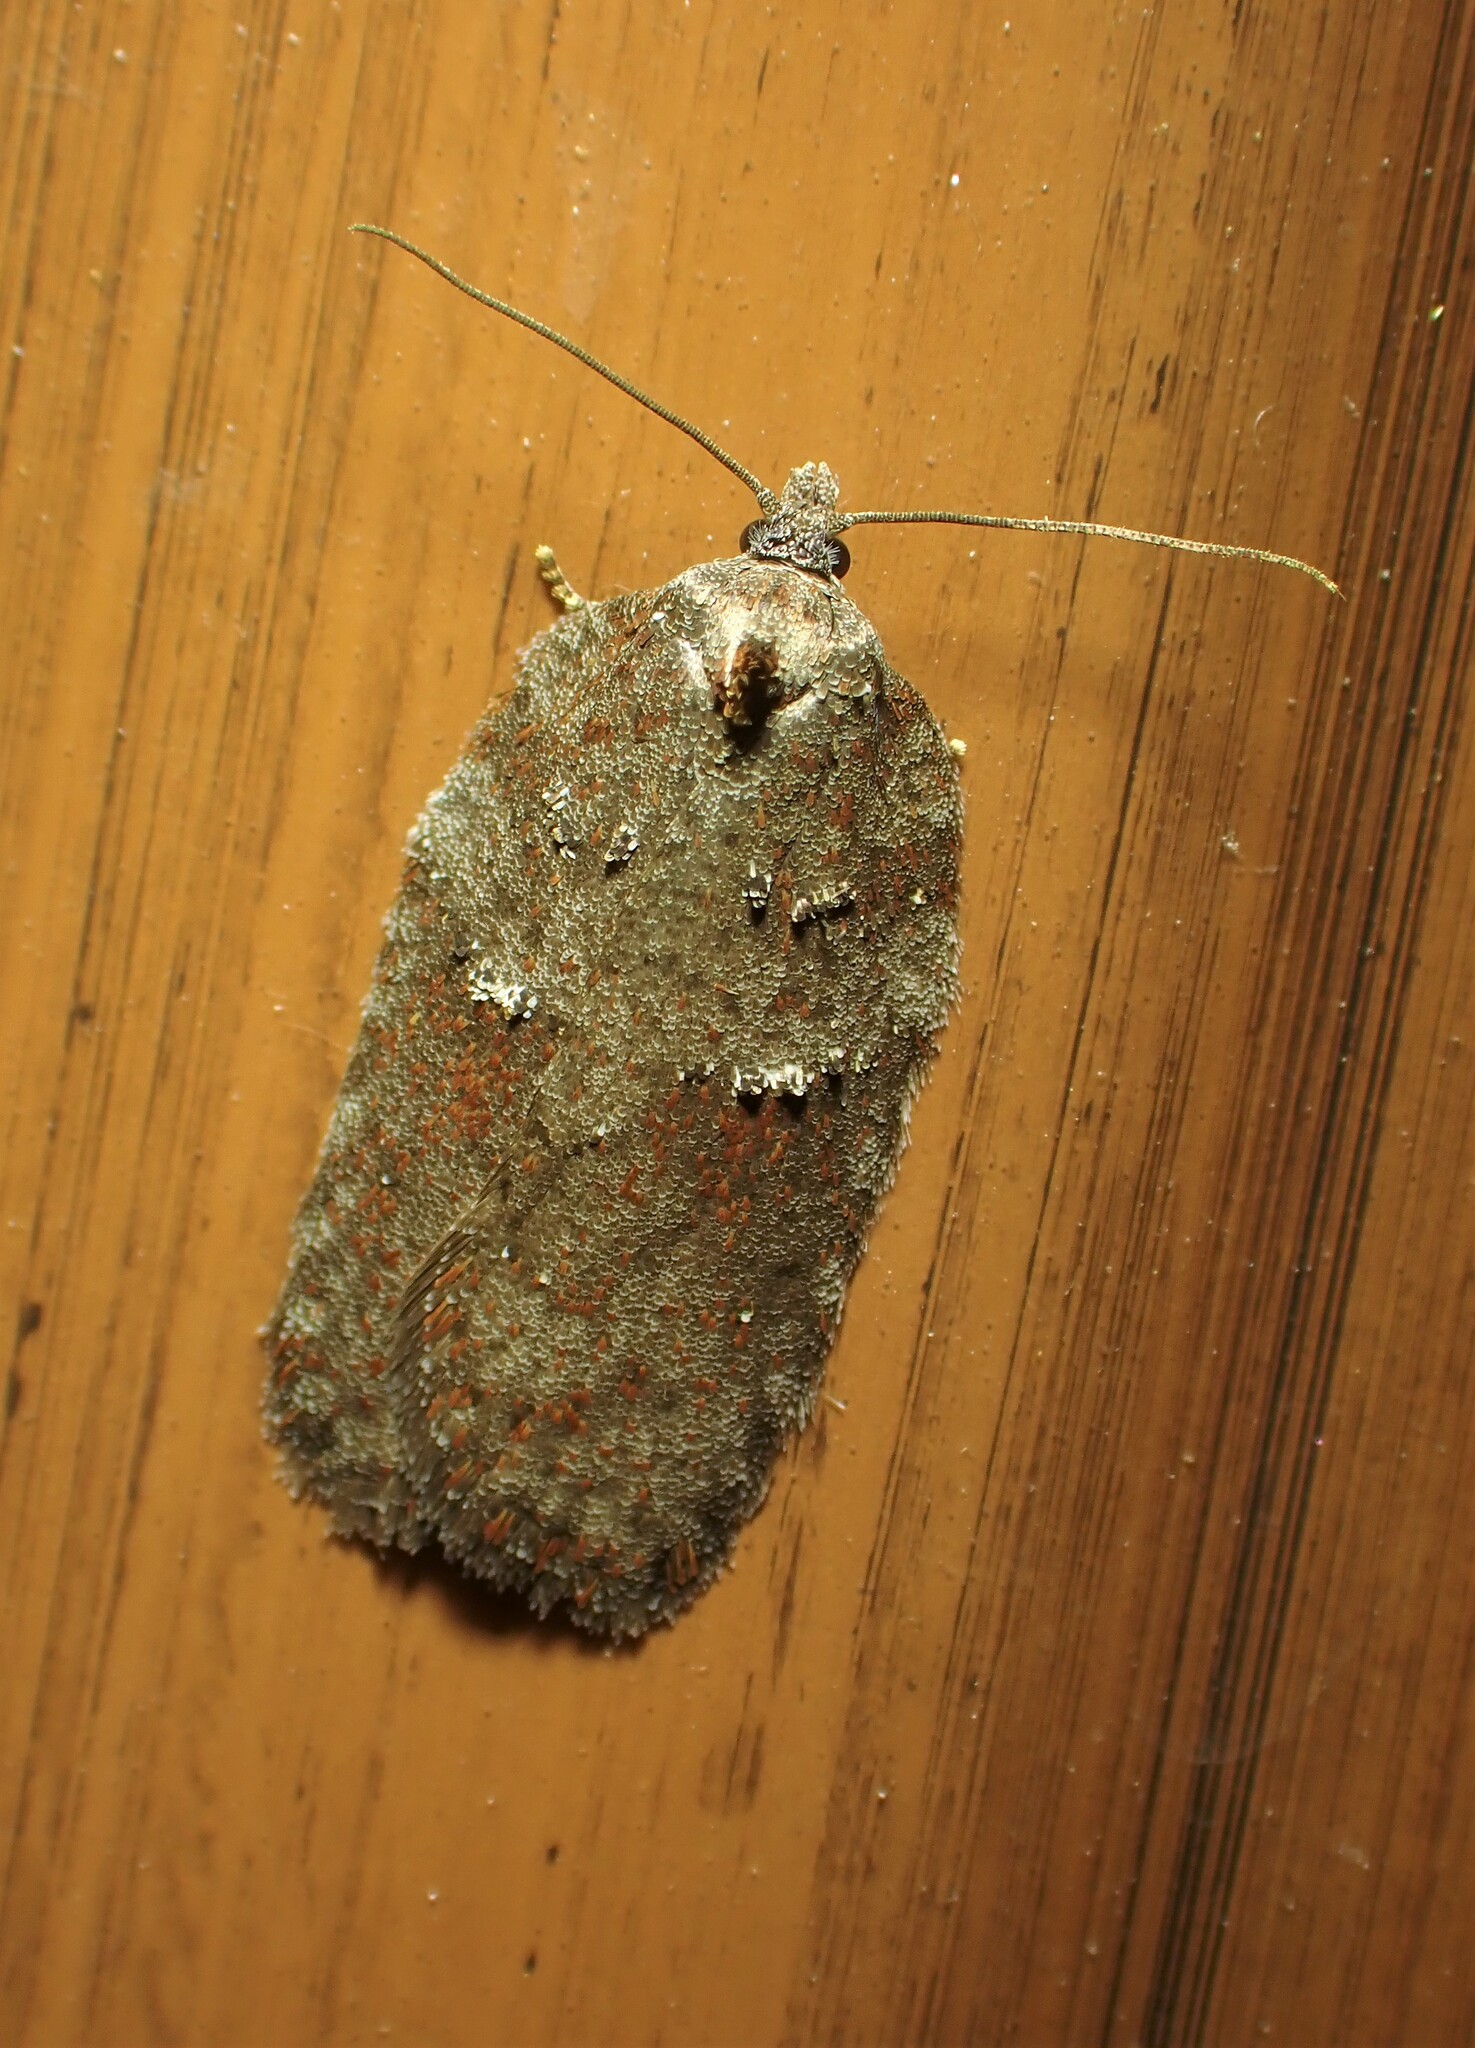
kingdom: Animalia
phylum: Arthropoda
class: Insecta
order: Lepidoptera
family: Tortricidae
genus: Acleris
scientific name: Acleris caliginosana
